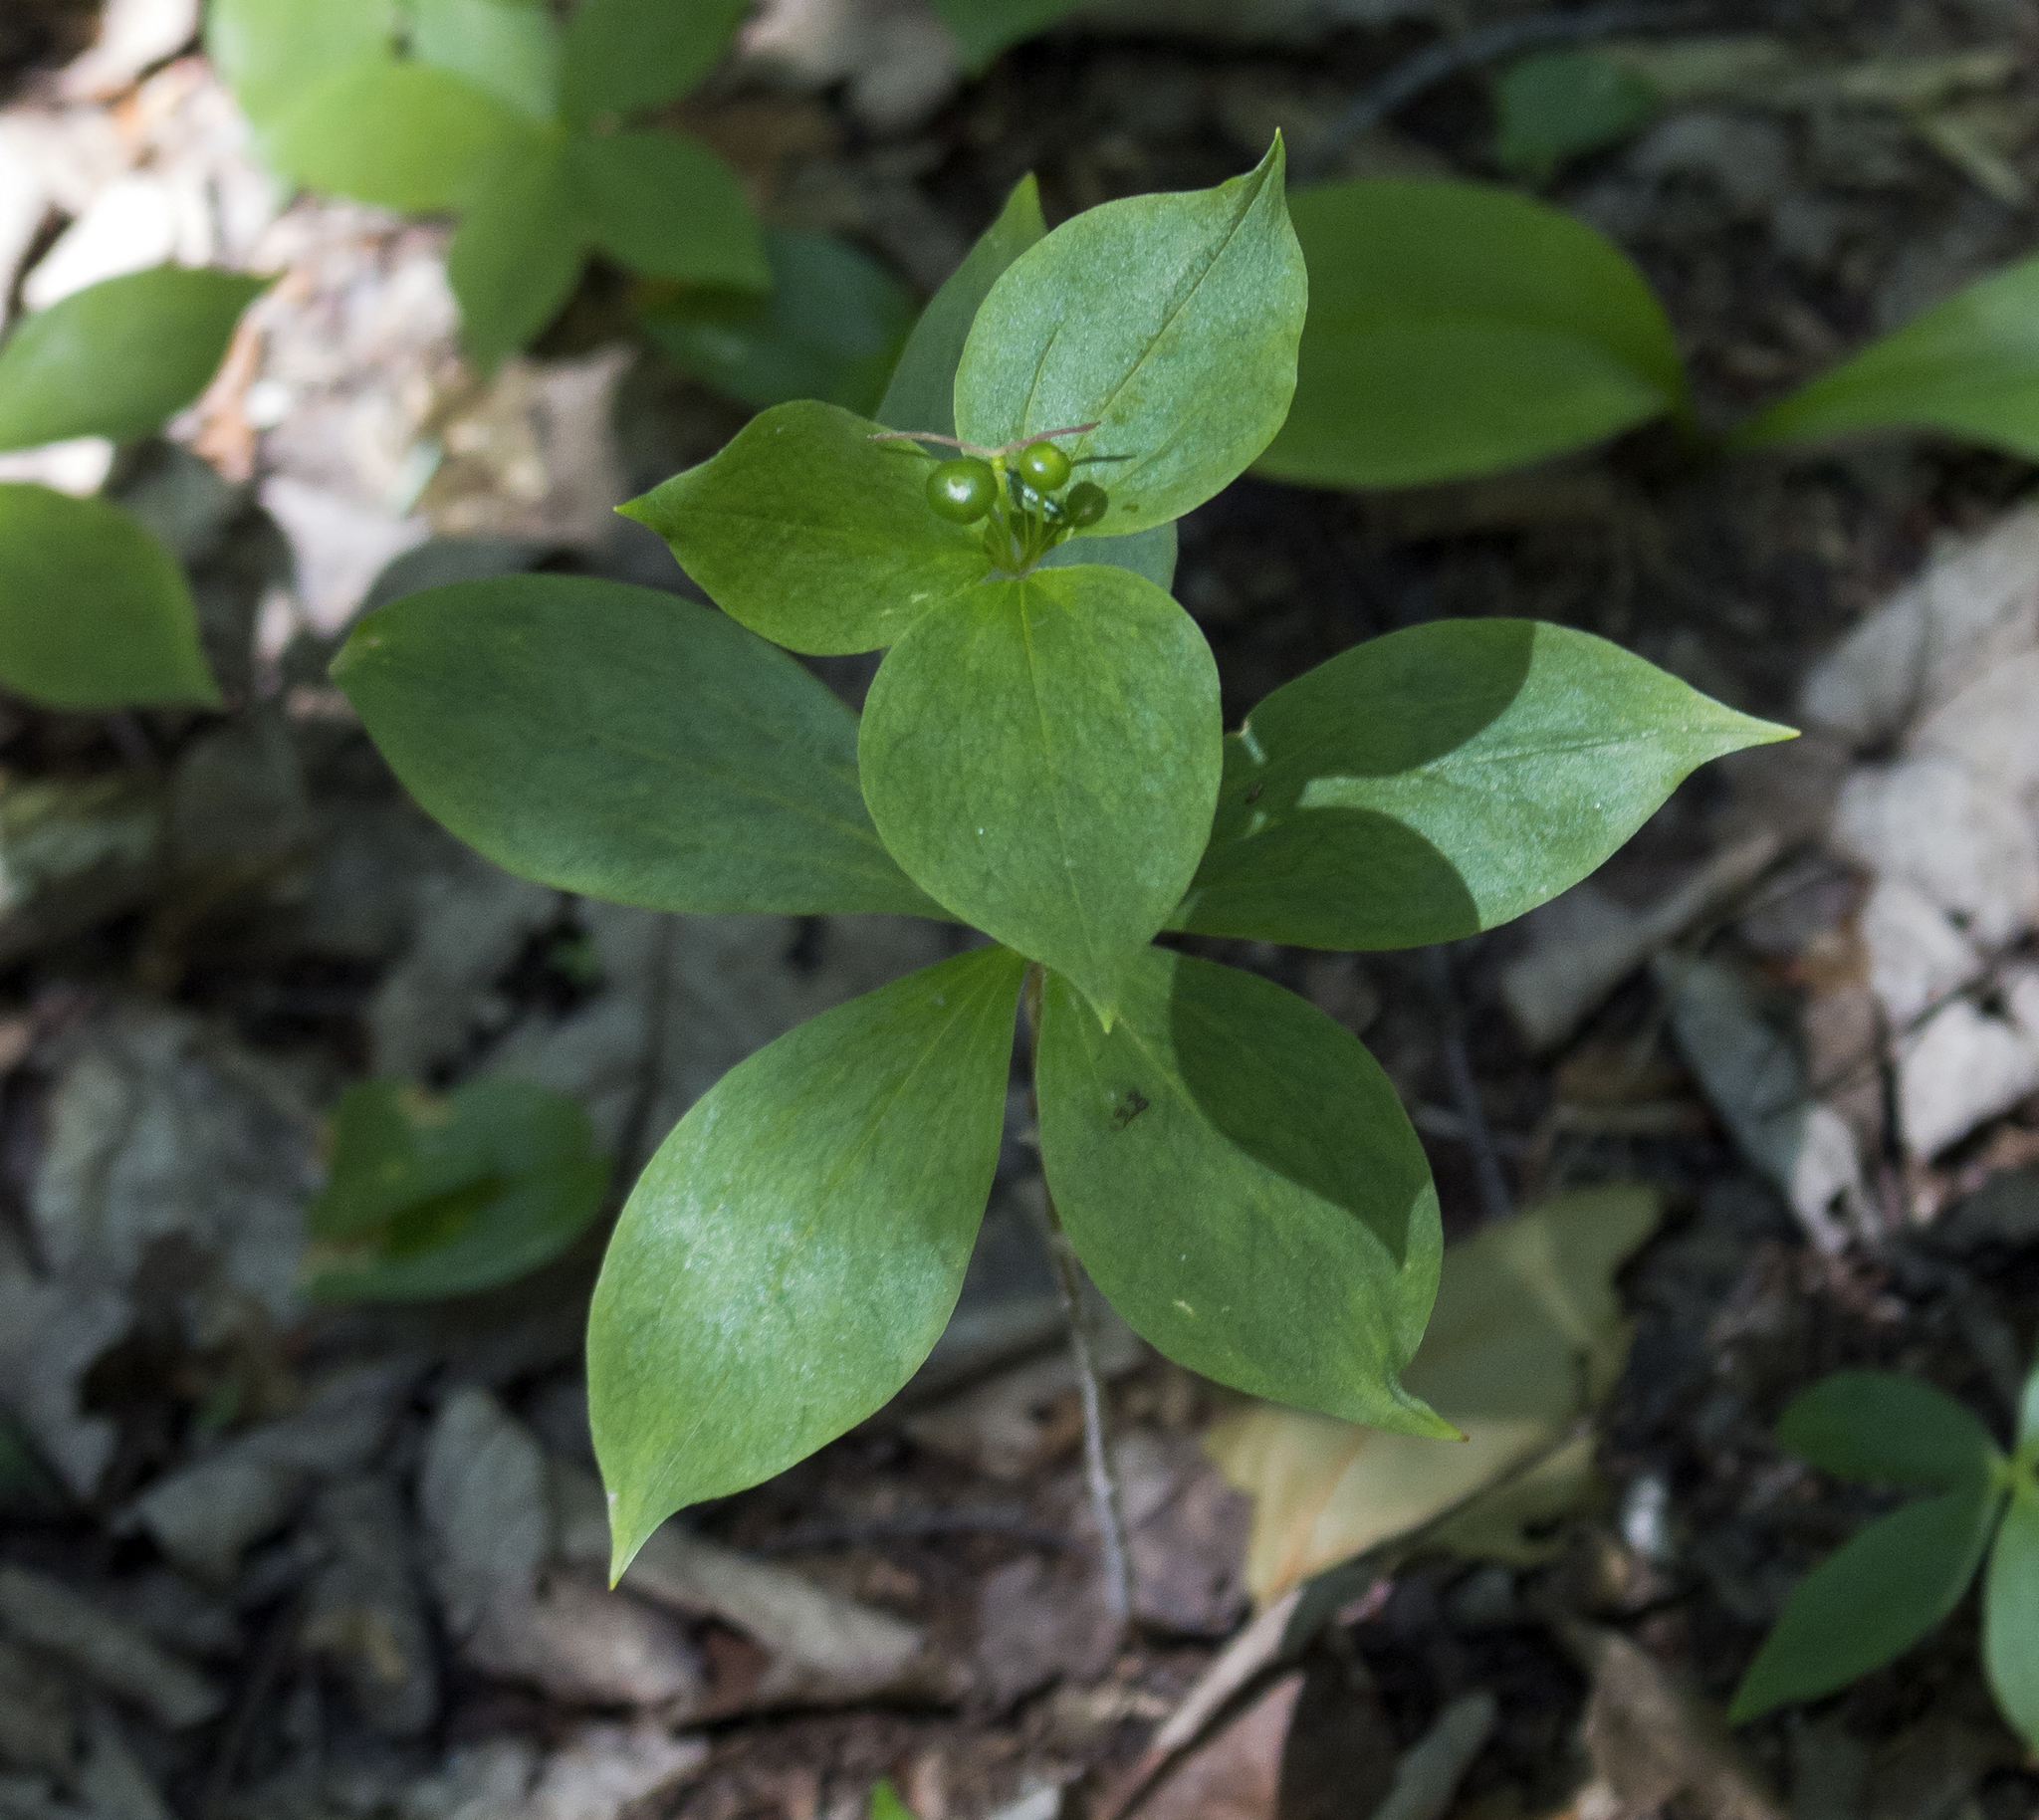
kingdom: Plantae
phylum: Tracheophyta
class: Liliopsida
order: Liliales
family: Liliaceae
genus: Medeola
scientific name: Medeola virginiana
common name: Indian cucumber-root
